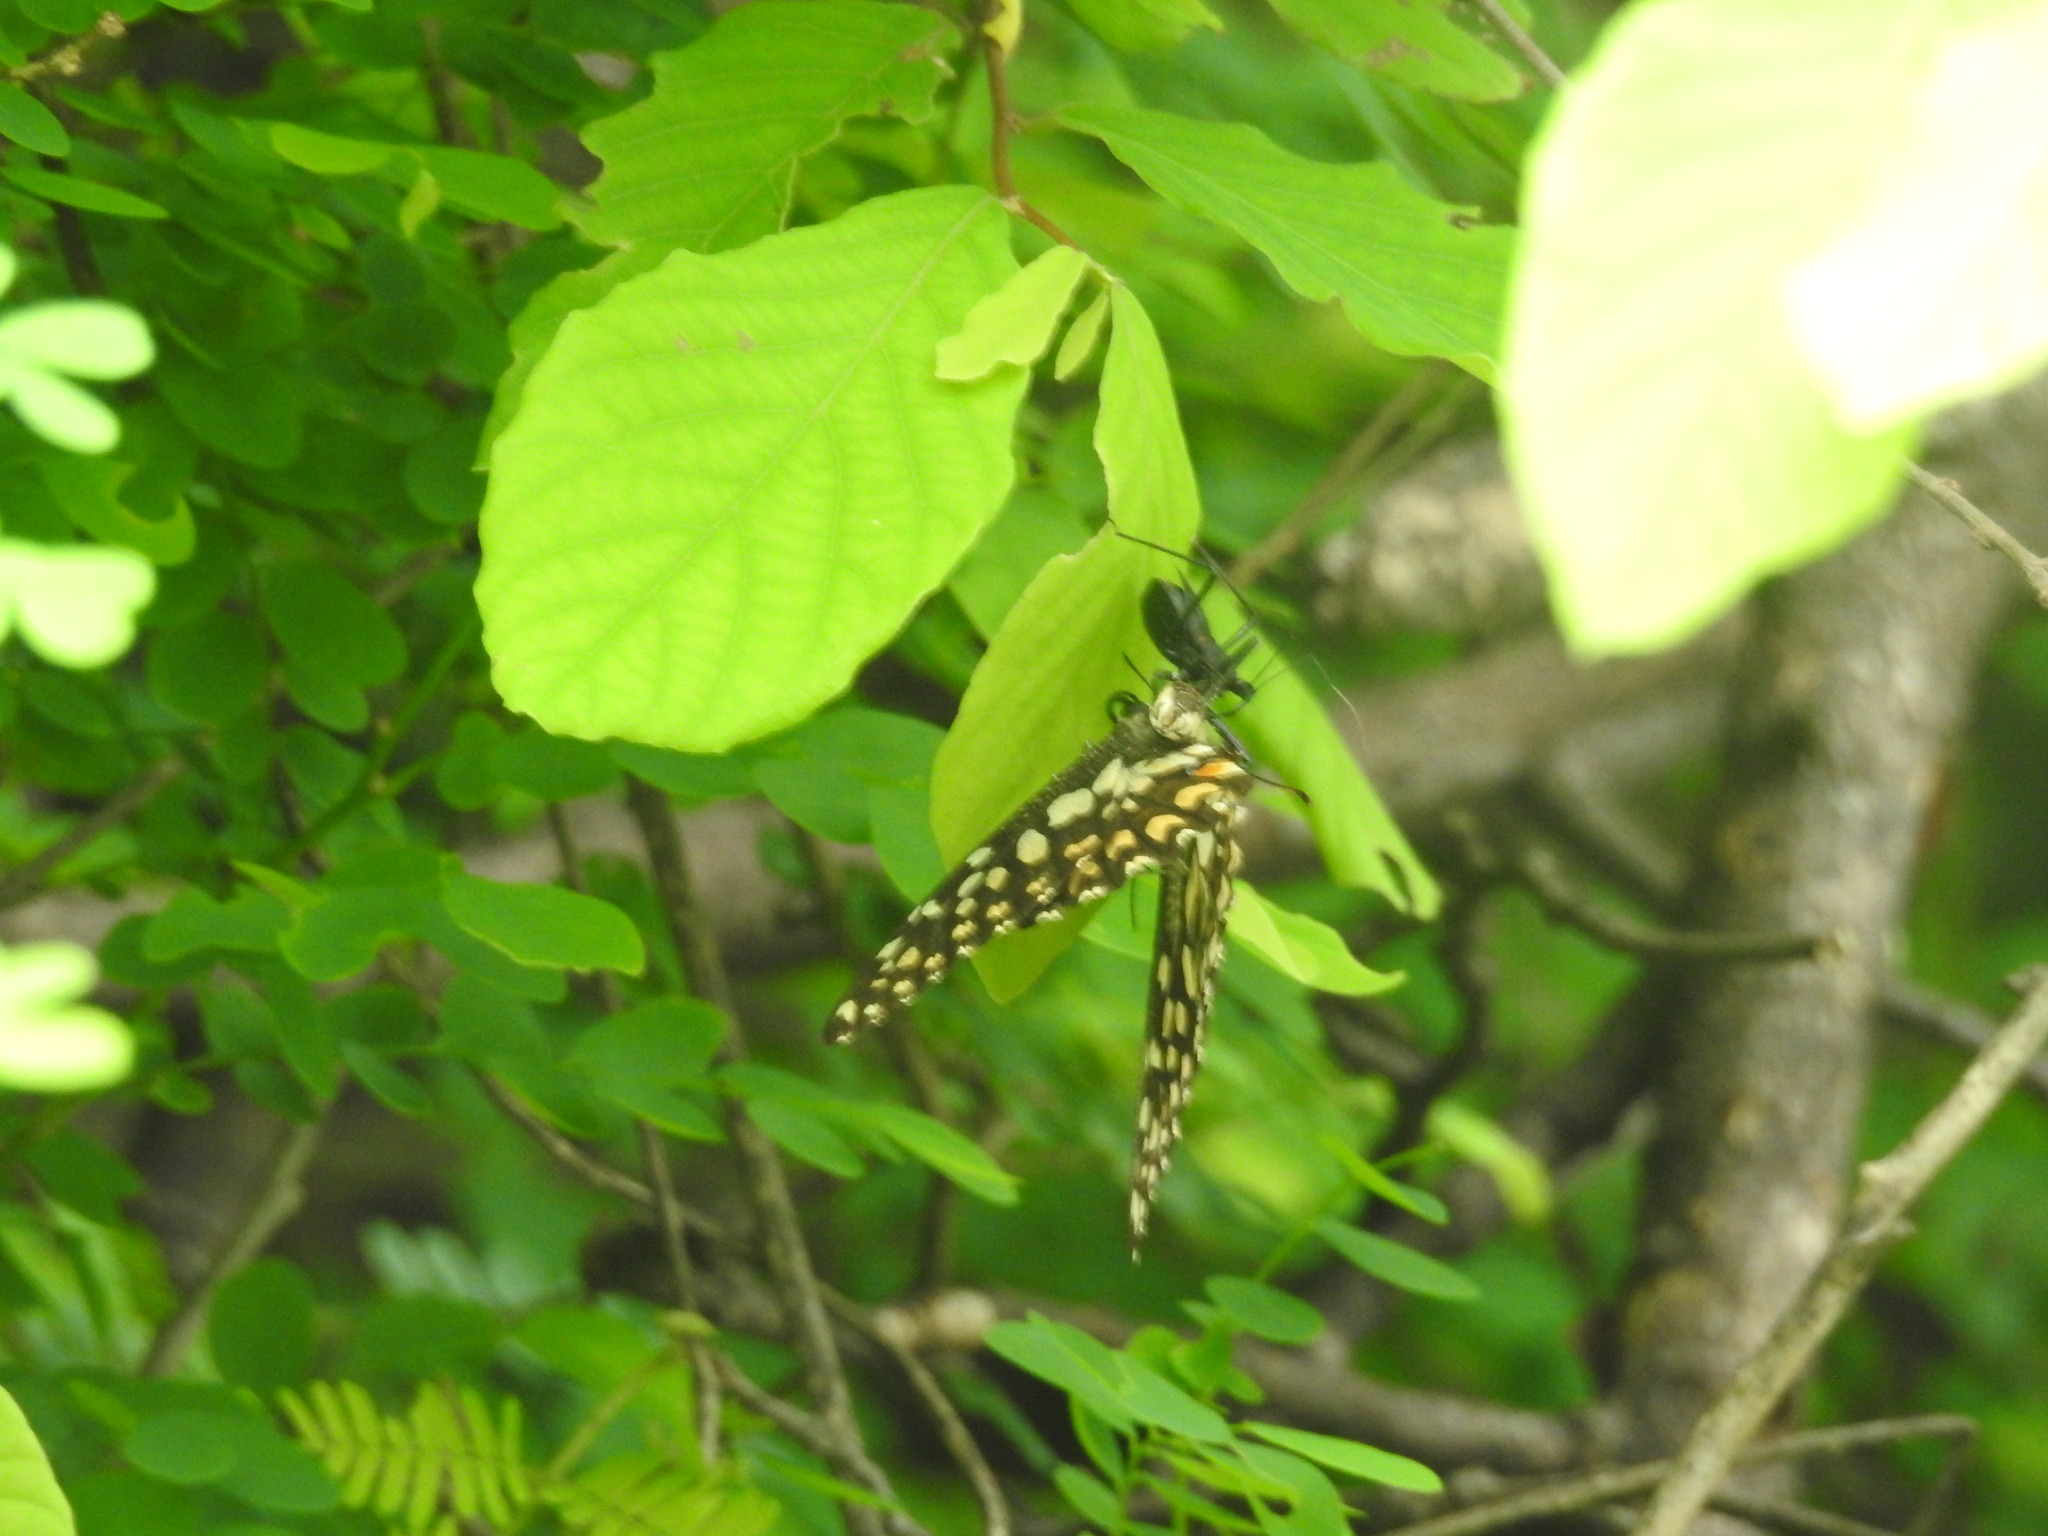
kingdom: Animalia
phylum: Arthropoda
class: Insecta
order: Lepidoptera
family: Papilionidae
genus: Papilio
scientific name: Papilio demoleus
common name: Lime butterfly
